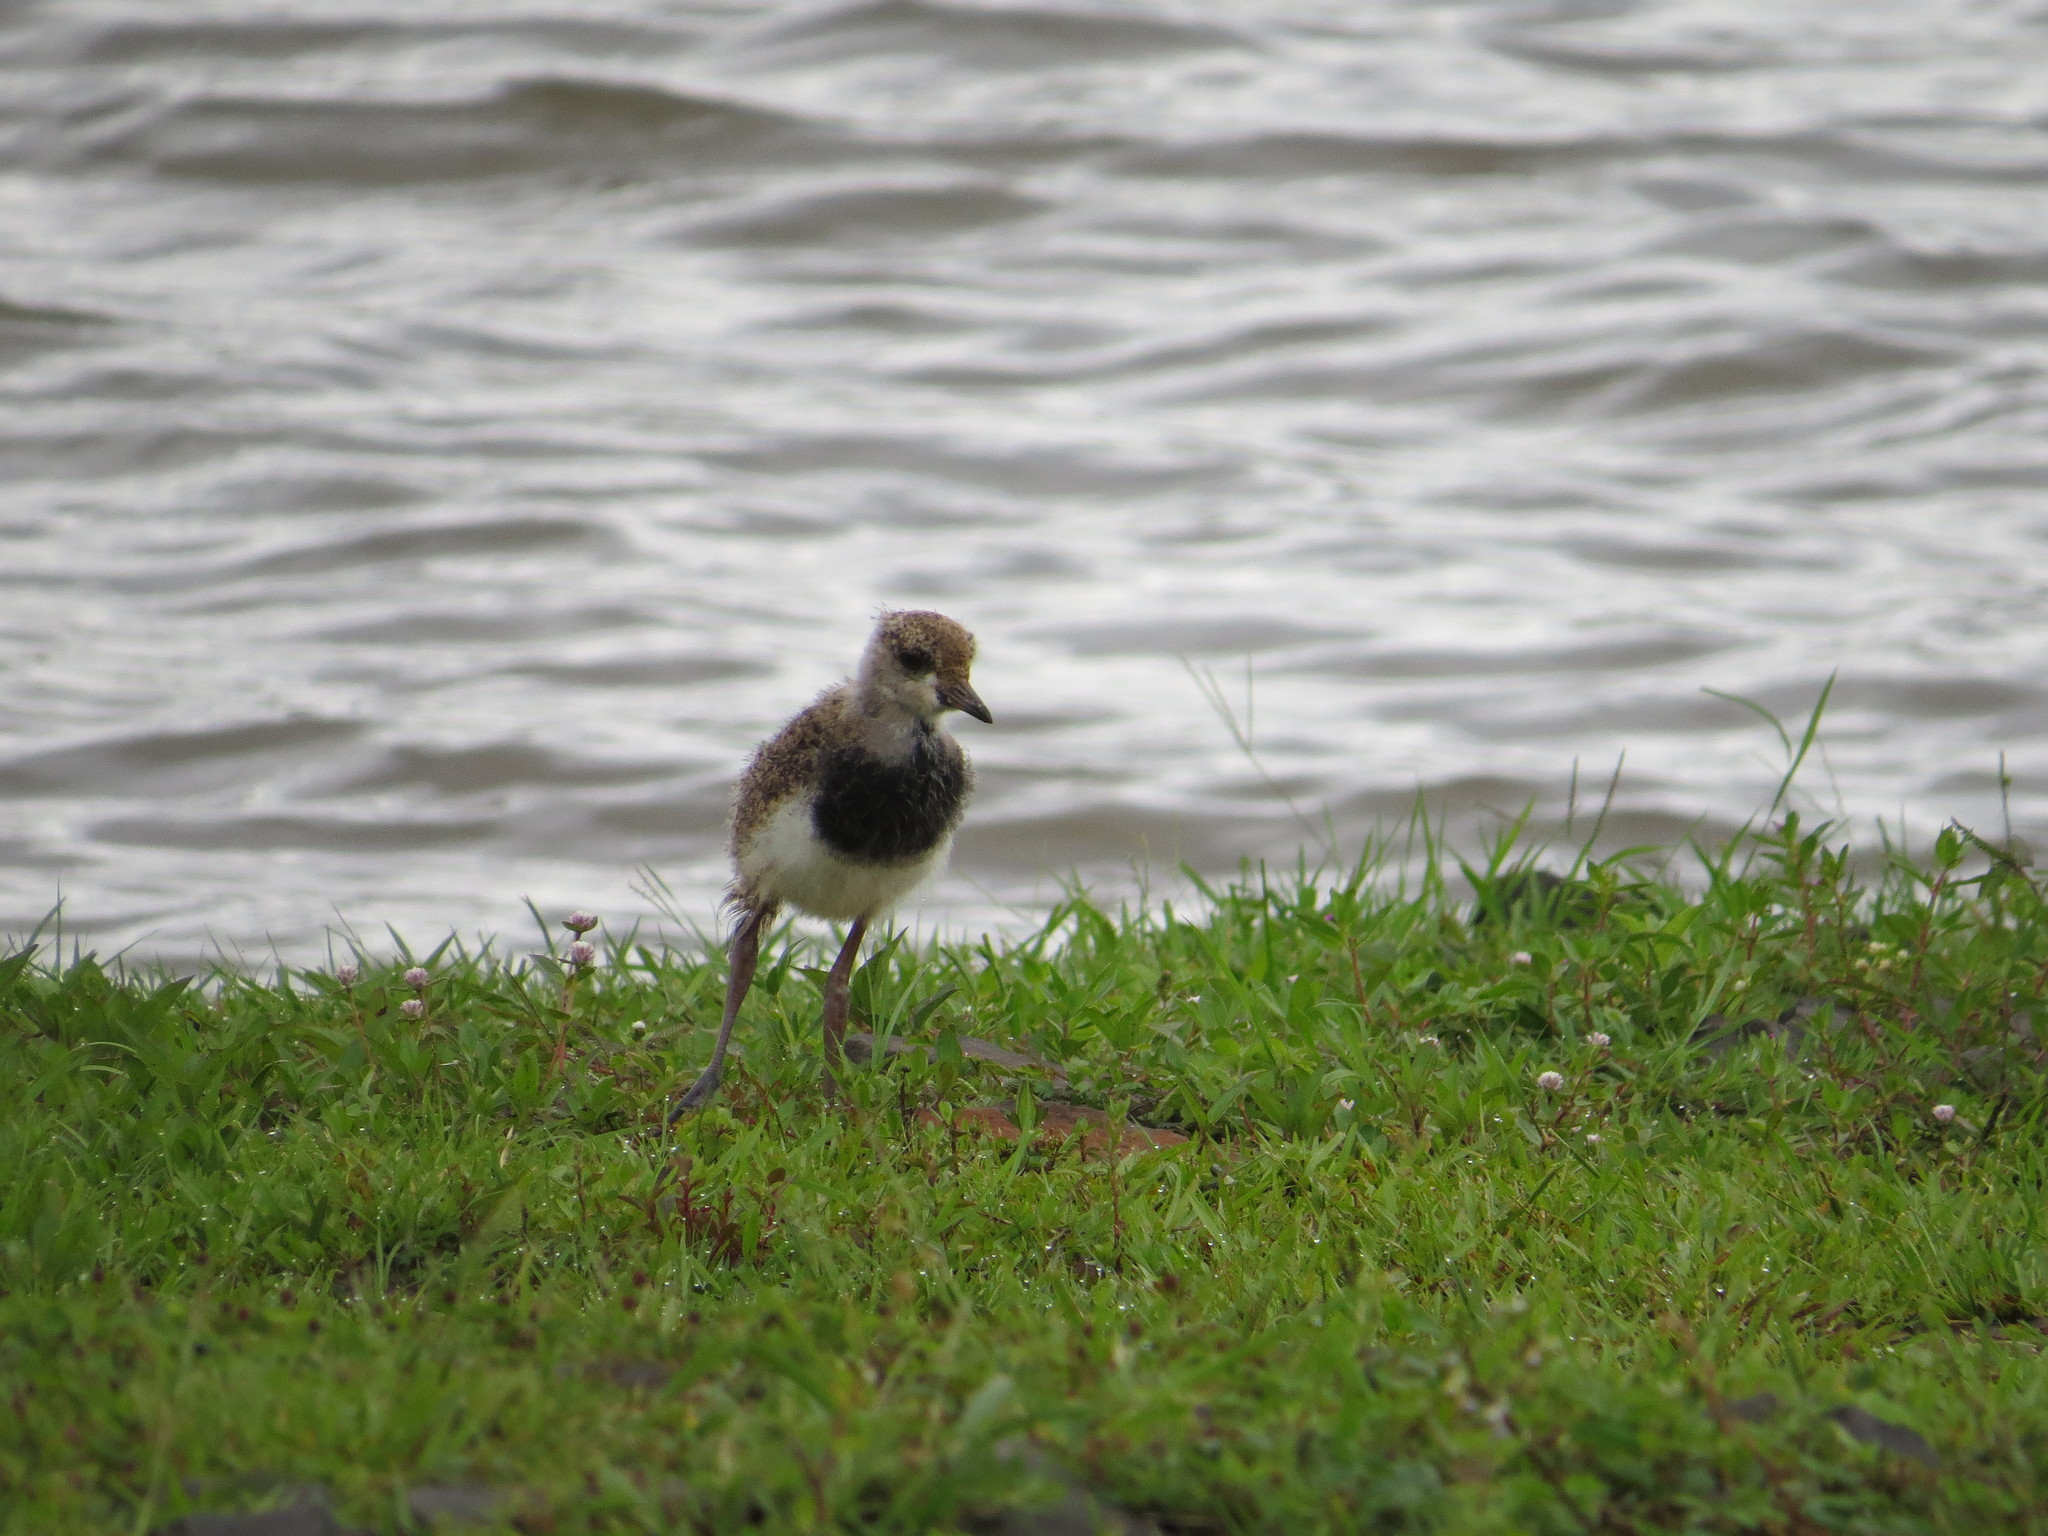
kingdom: Animalia
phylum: Chordata
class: Aves
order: Charadriiformes
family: Charadriidae
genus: Vanellus
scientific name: Vanellus chilensis
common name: Southern lapwing
